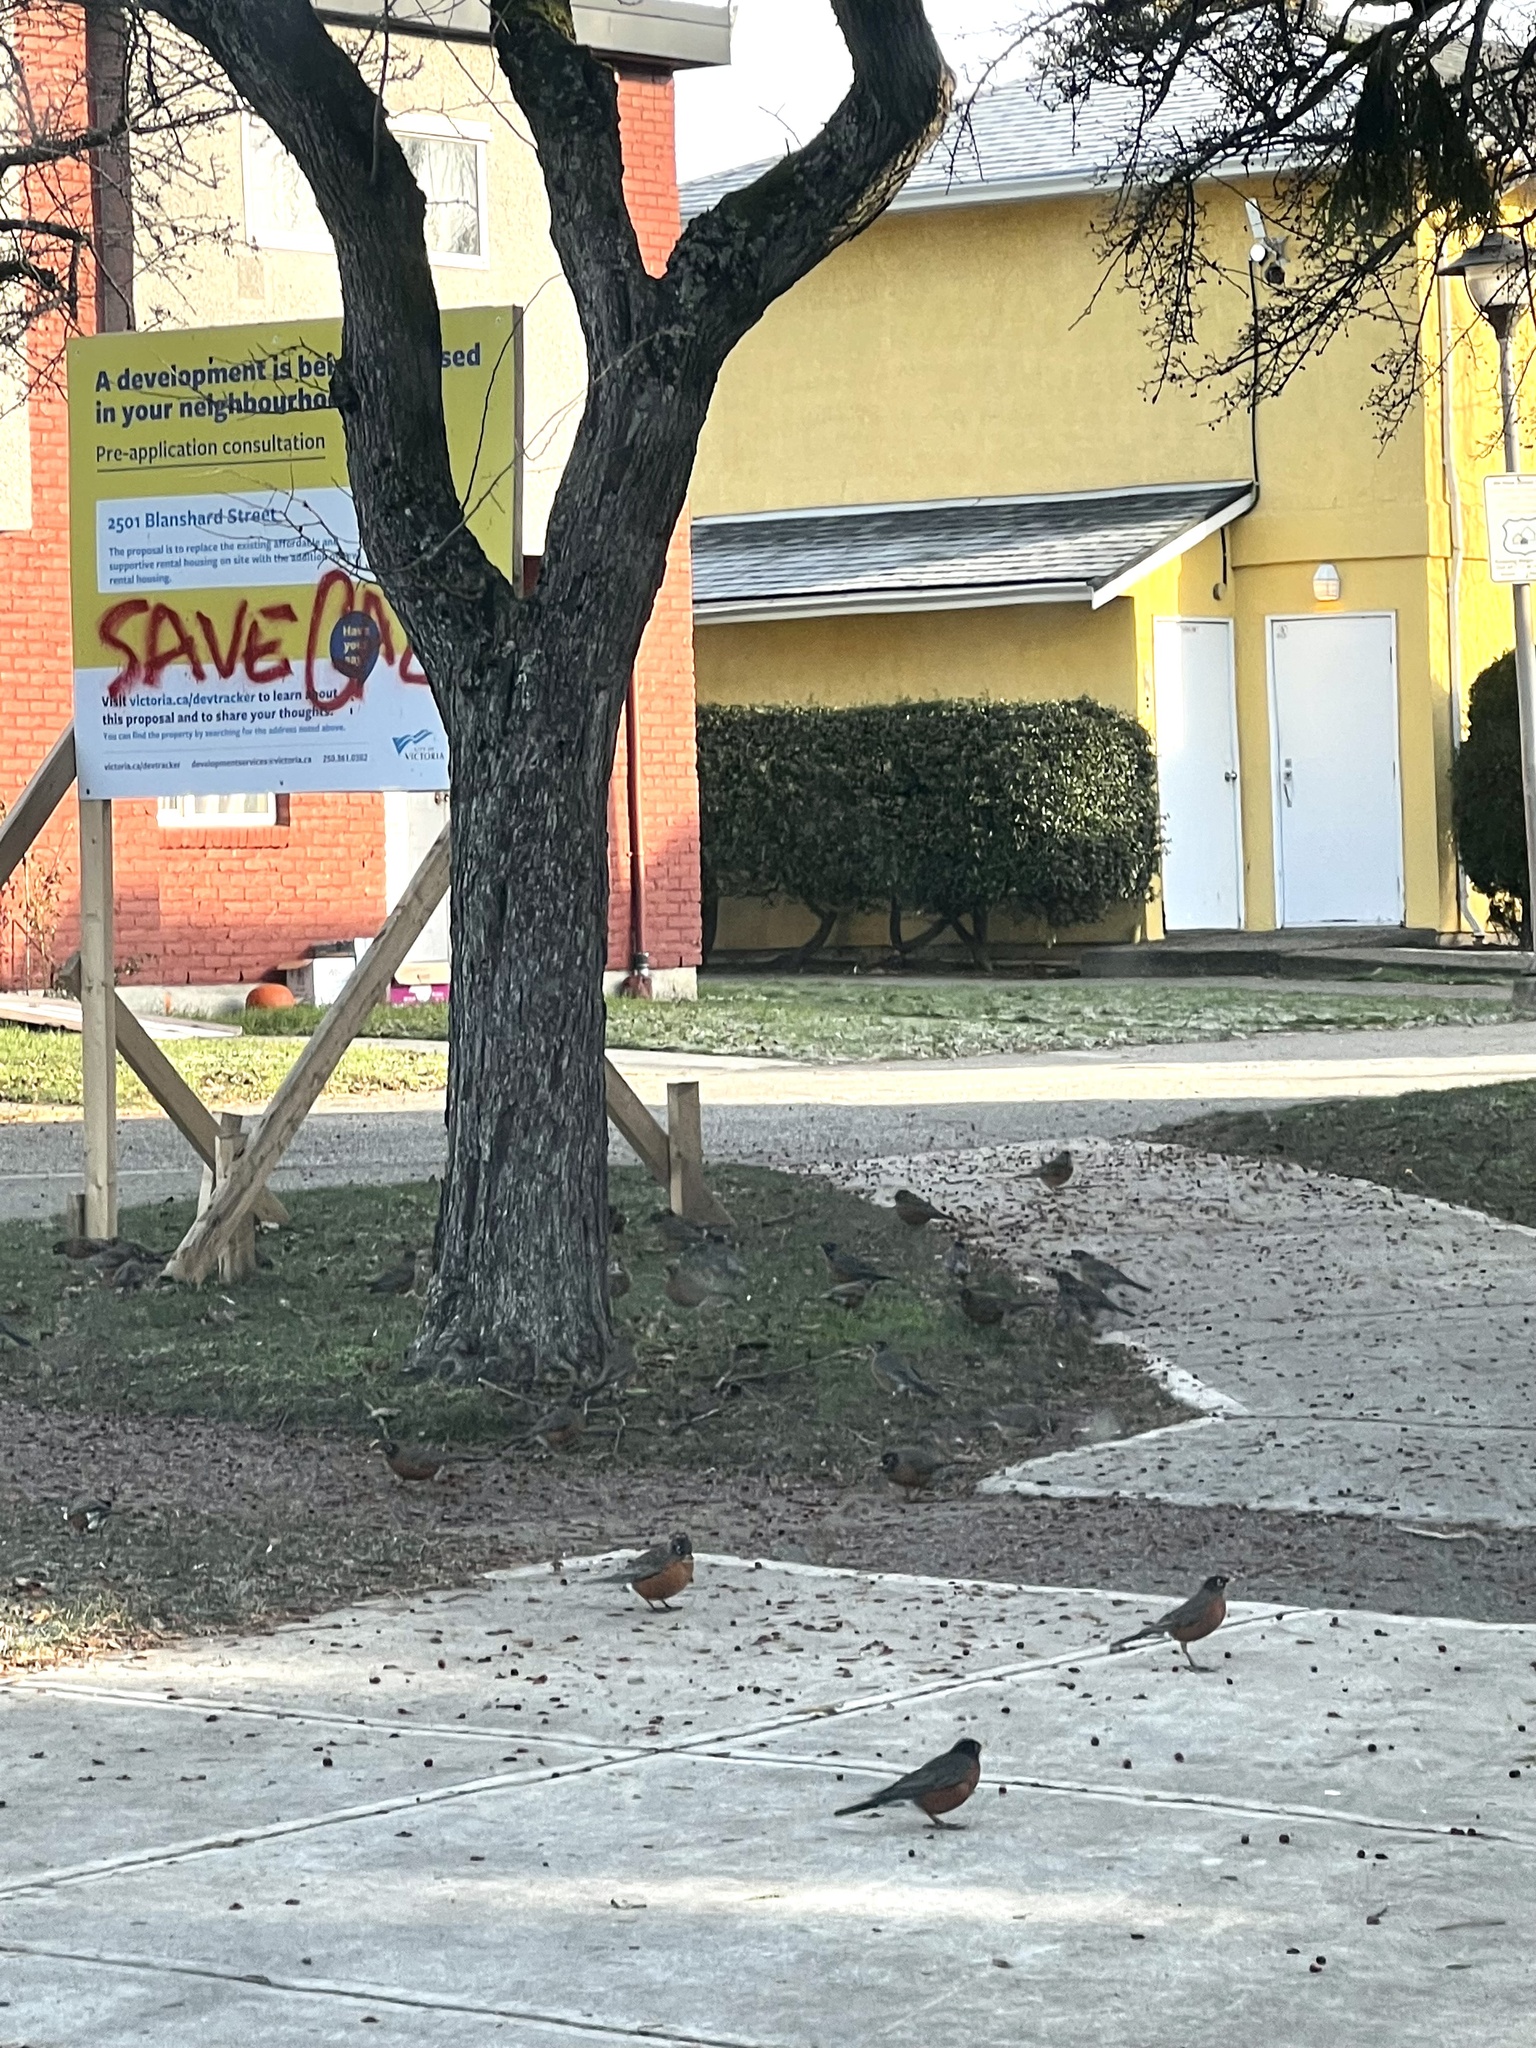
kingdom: Animalia
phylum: Chordata
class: Aves
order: Passeriformes
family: Turdidae
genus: Turdus
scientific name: Turdus migratorius
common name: American robin
